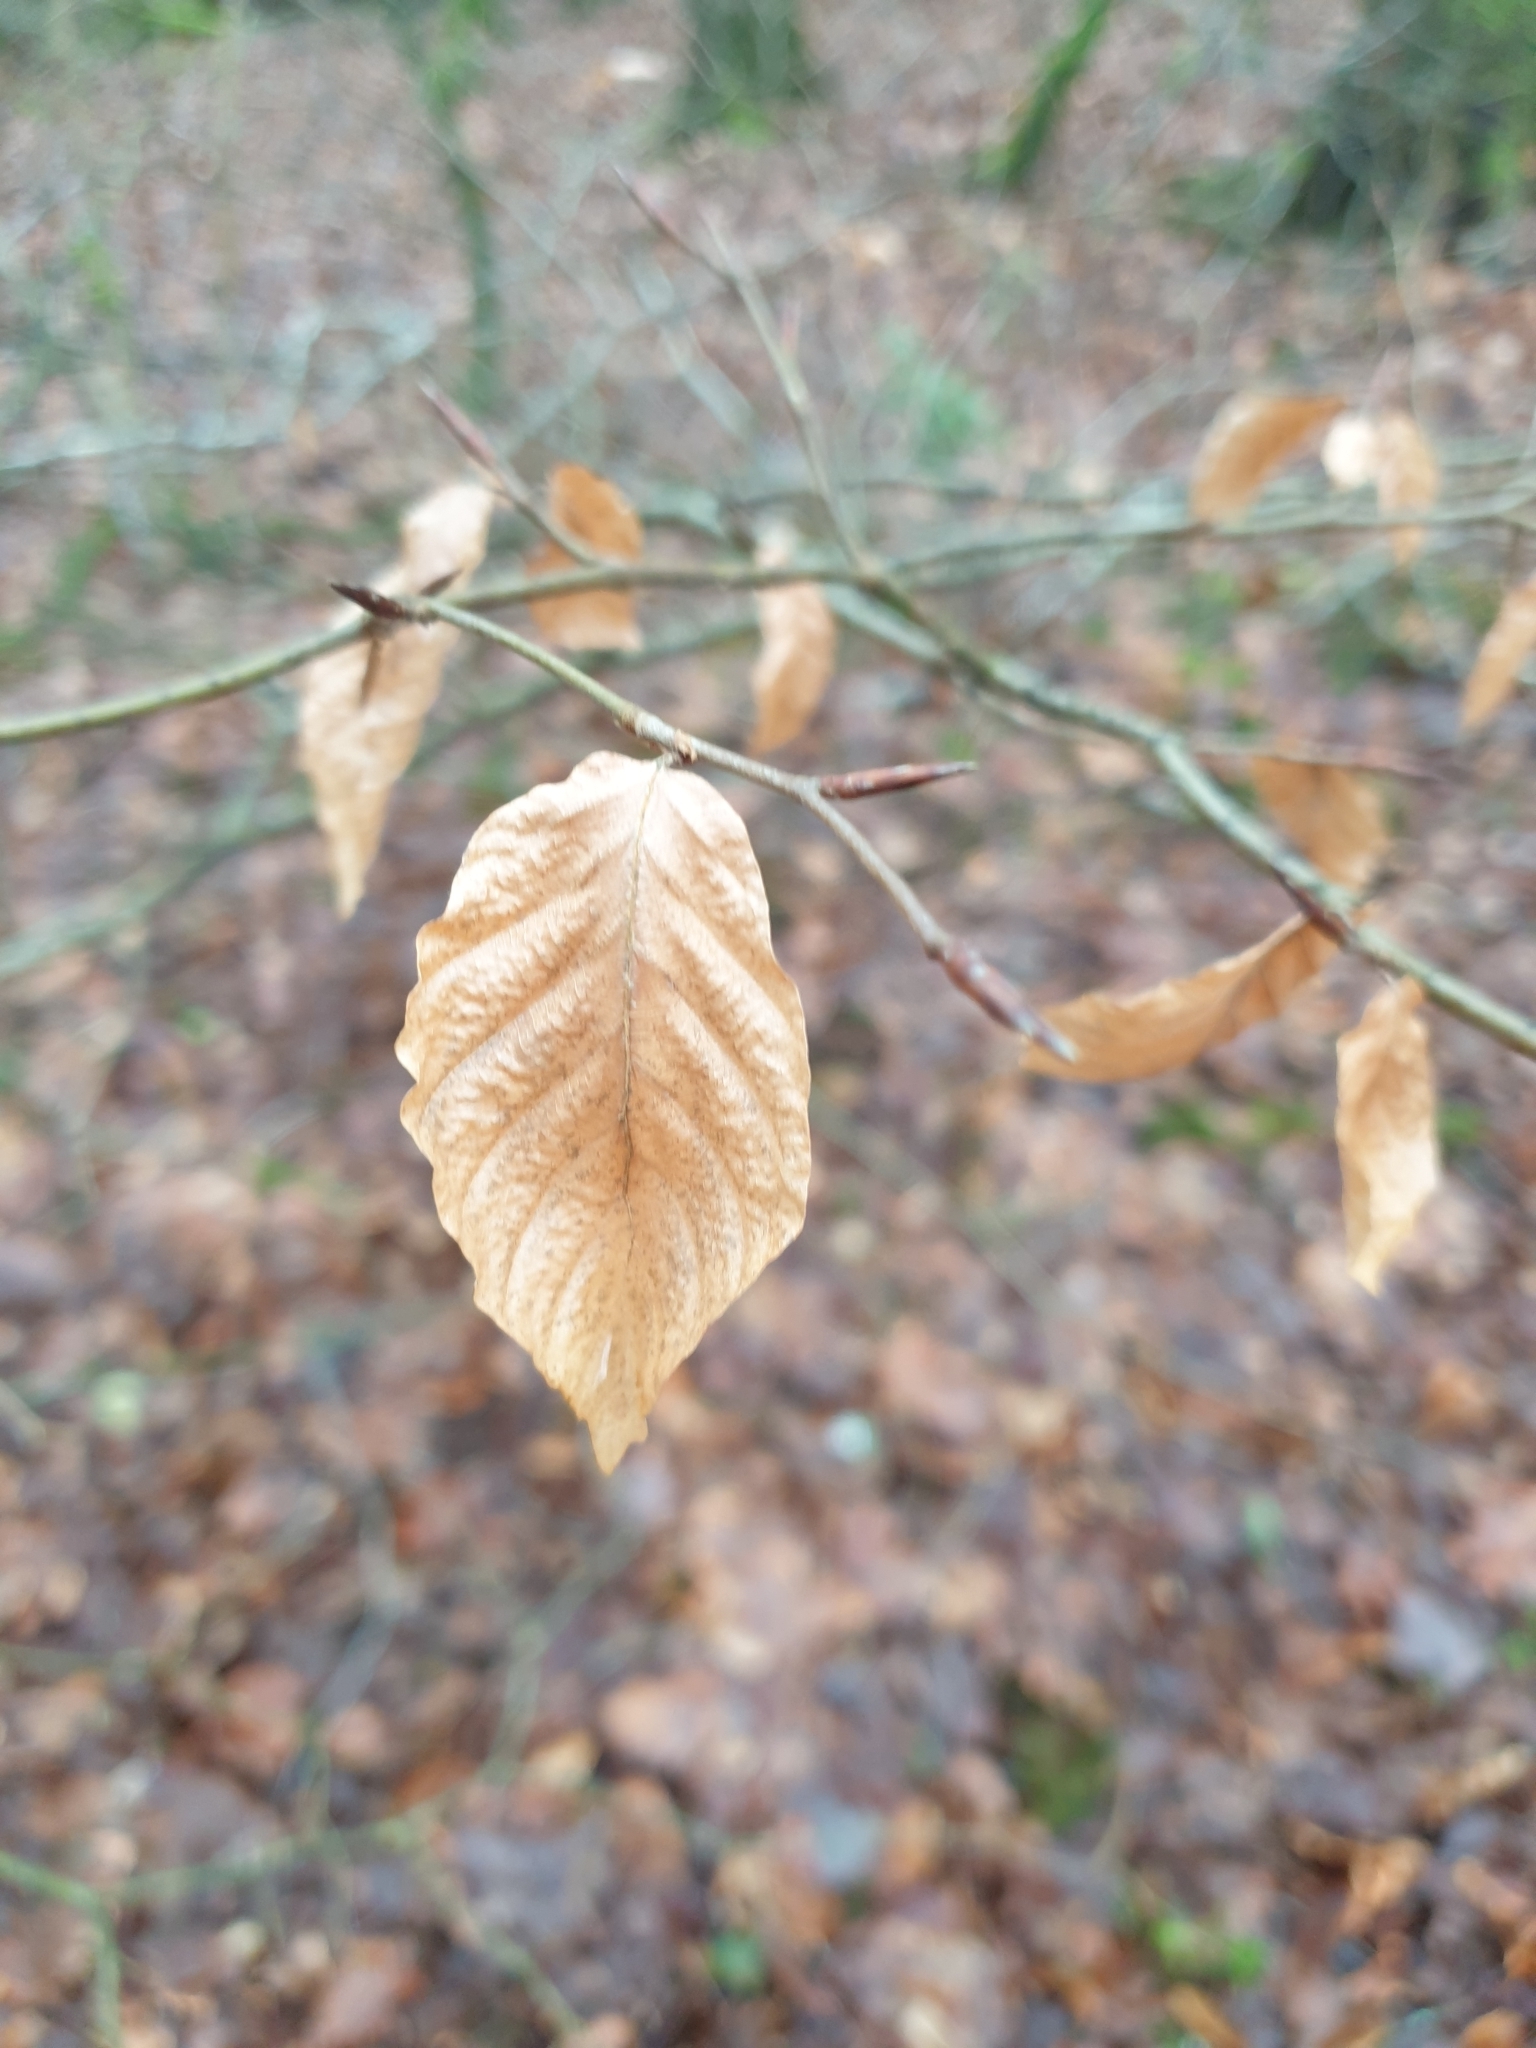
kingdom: Plantae
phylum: Tracheophyta
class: Magnoliopsida
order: Fagales
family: Fagaceae
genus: Fagus
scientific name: Fagus sylvatica
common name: Beech
